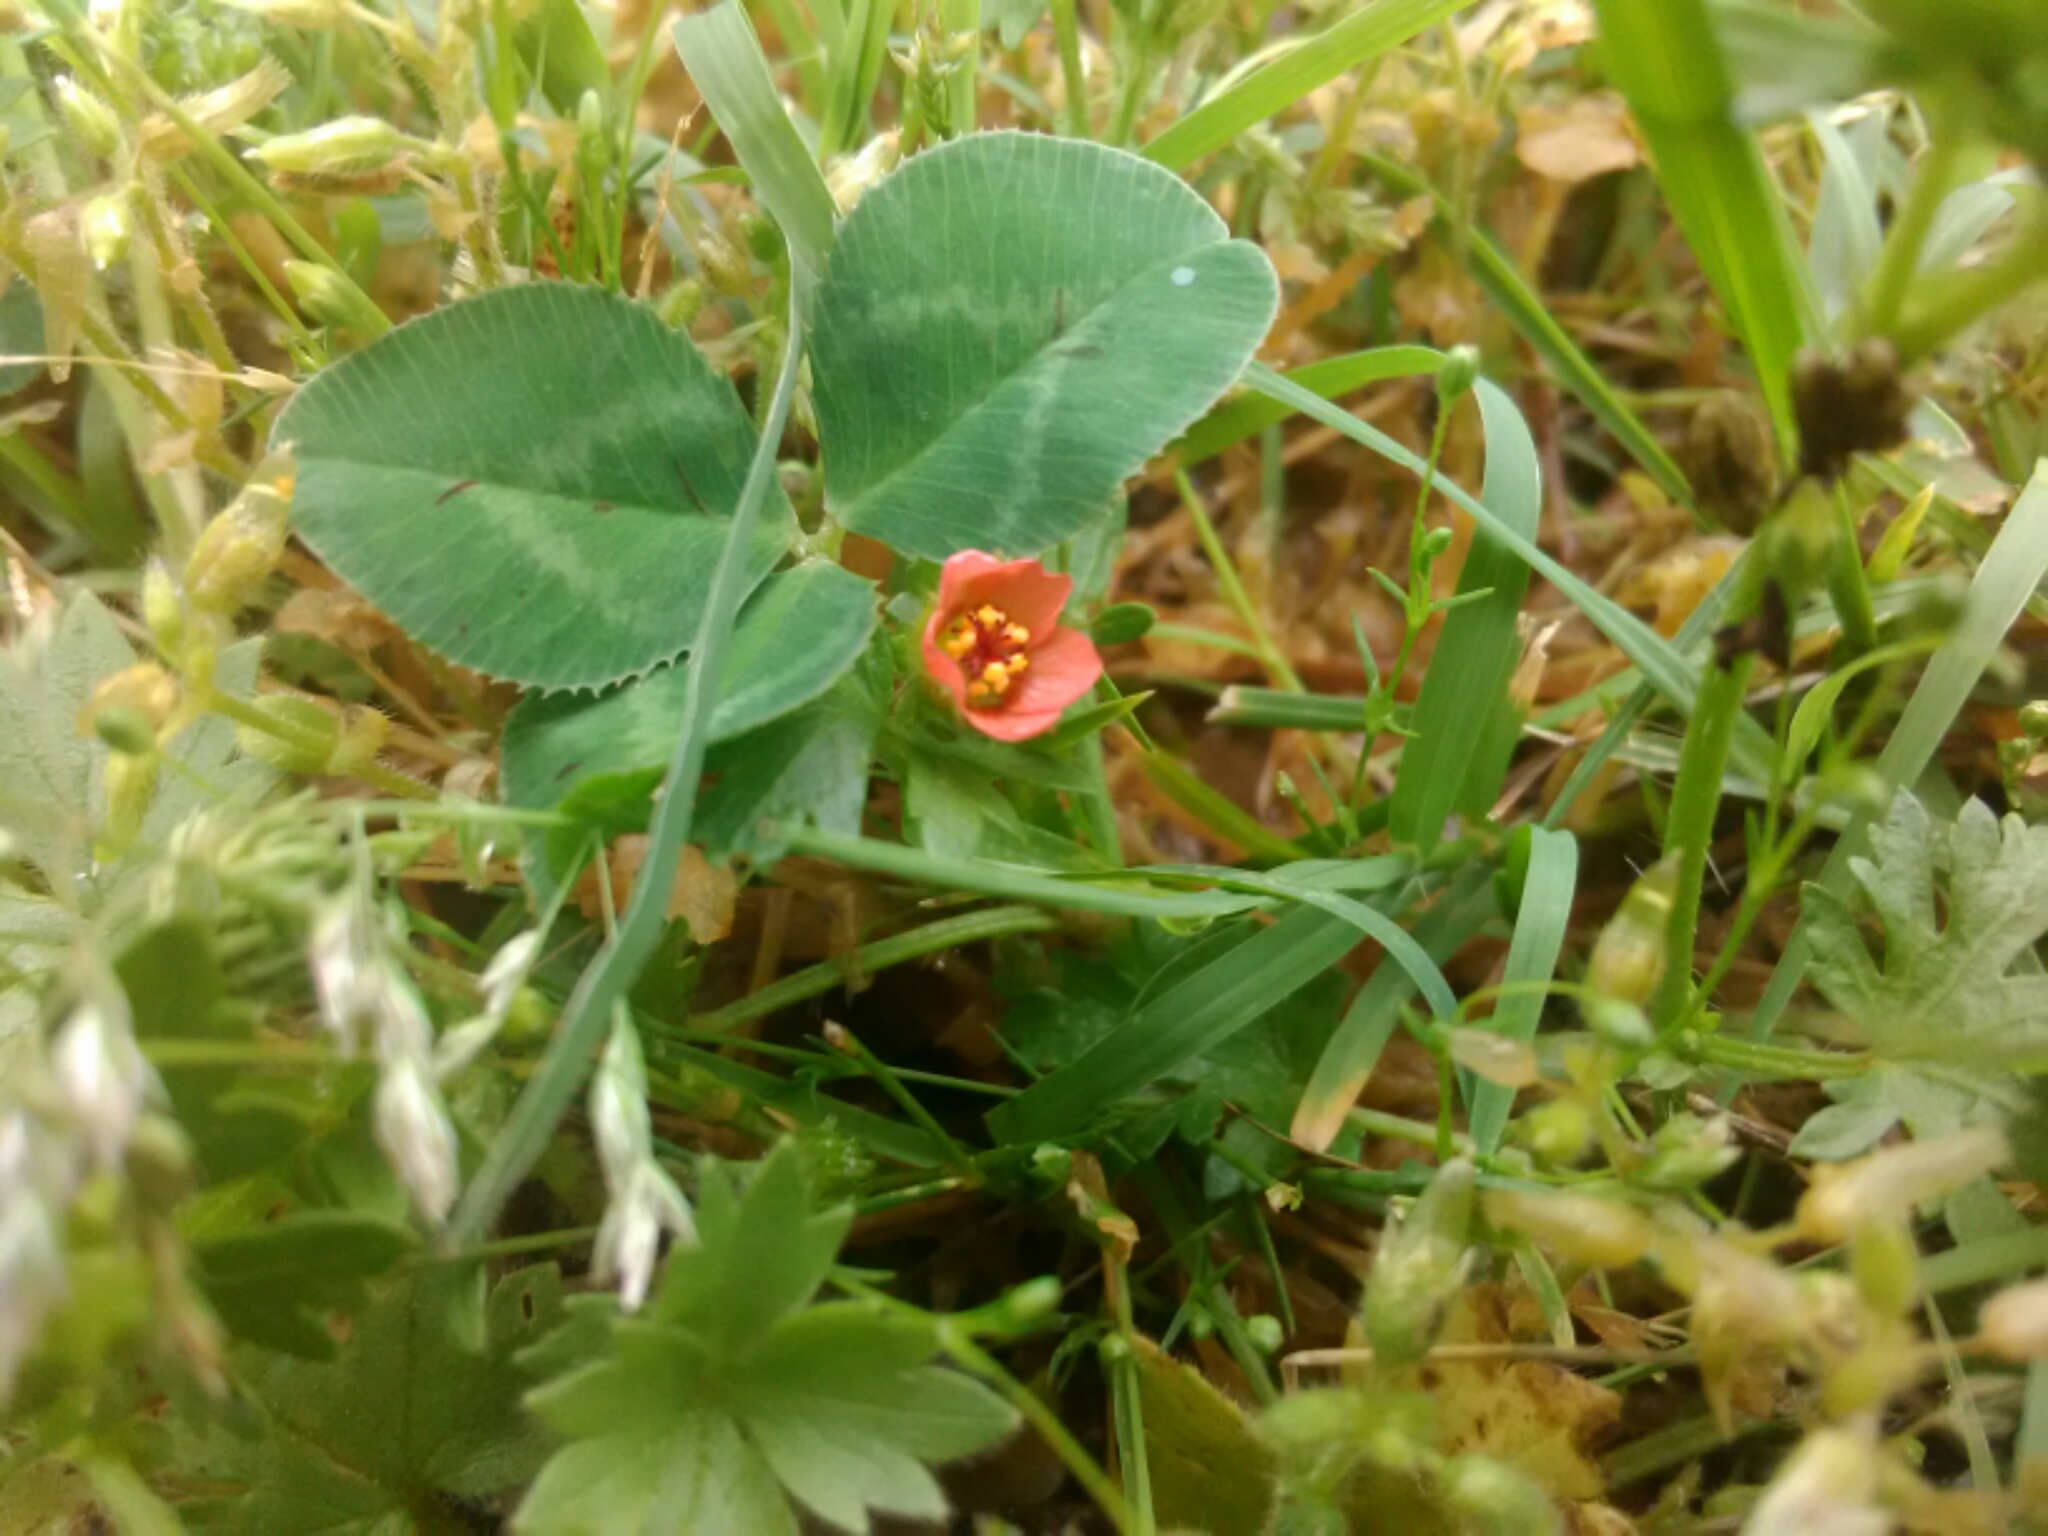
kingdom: Plantae
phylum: Tracheophyta
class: Magnoliopsida
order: Malvales
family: Malvaceae
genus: Modiola
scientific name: Modiola caroliniana
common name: Carolina bristlemallow
